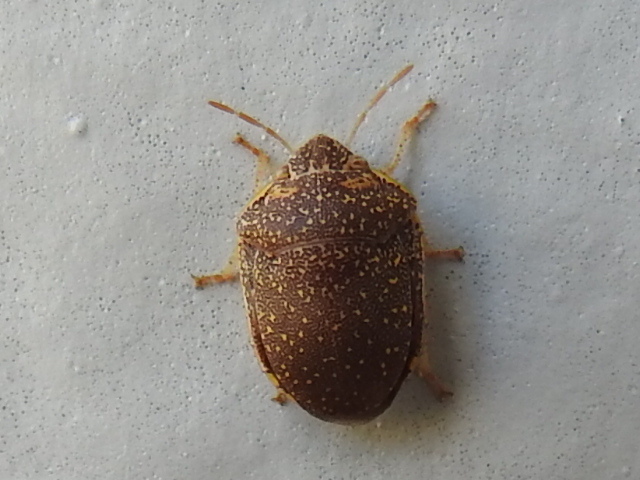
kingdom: Animalia
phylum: Arthropoda
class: Insecta
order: Hemiptera
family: Scutelleridae
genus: Diolcus
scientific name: Diolcus irroratus
